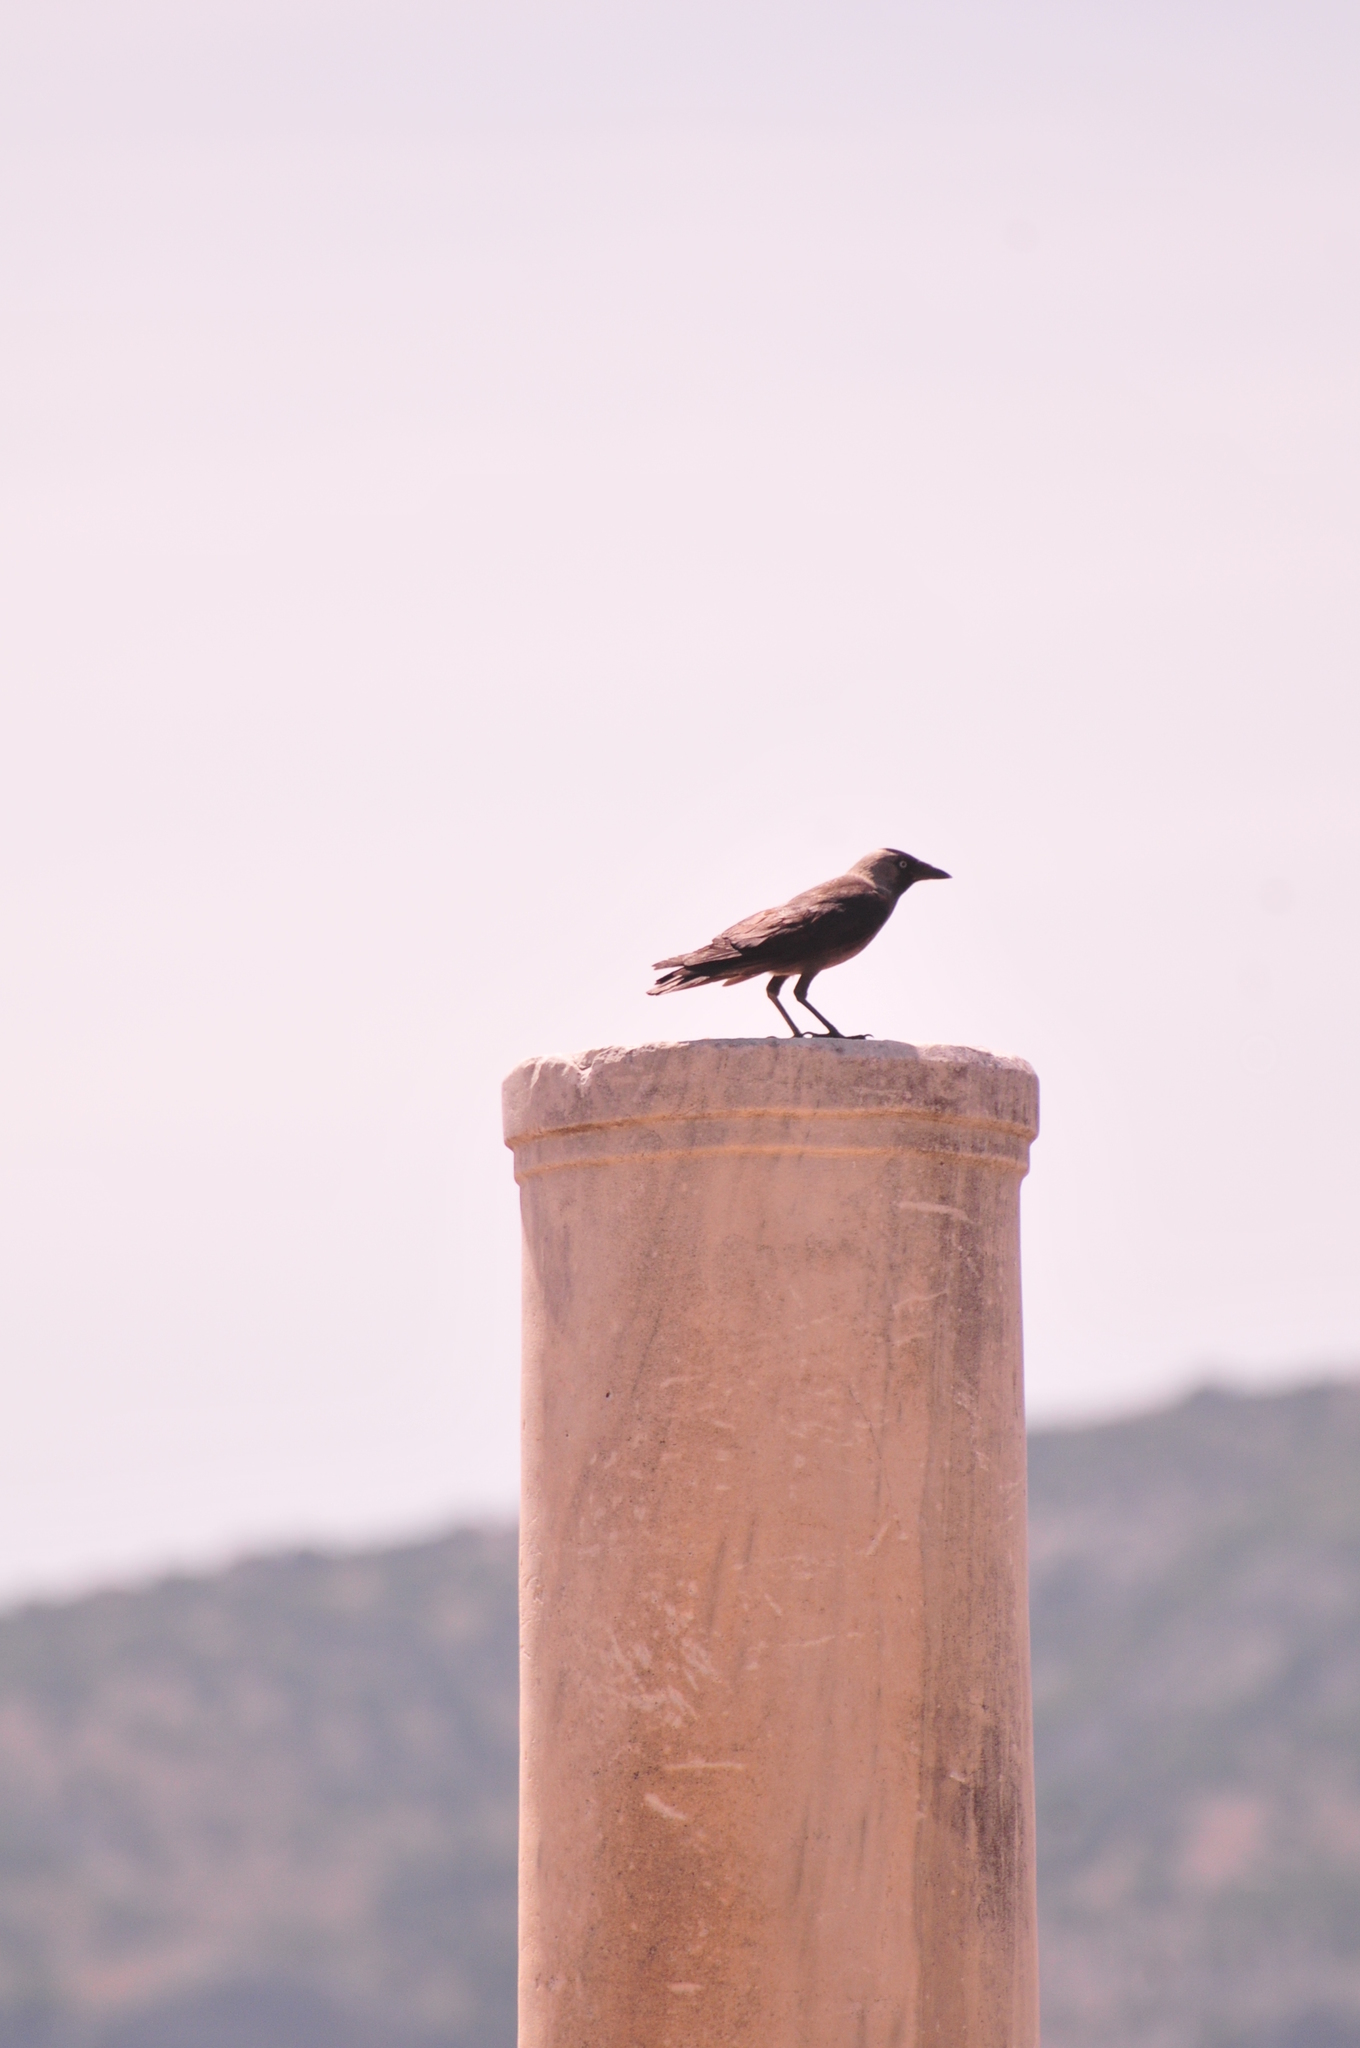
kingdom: Animalia
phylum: Chordata
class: Aves
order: Passeriformes
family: Corvidae
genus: Coloeus
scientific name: Coloeus monedula
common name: Western jackdaw
